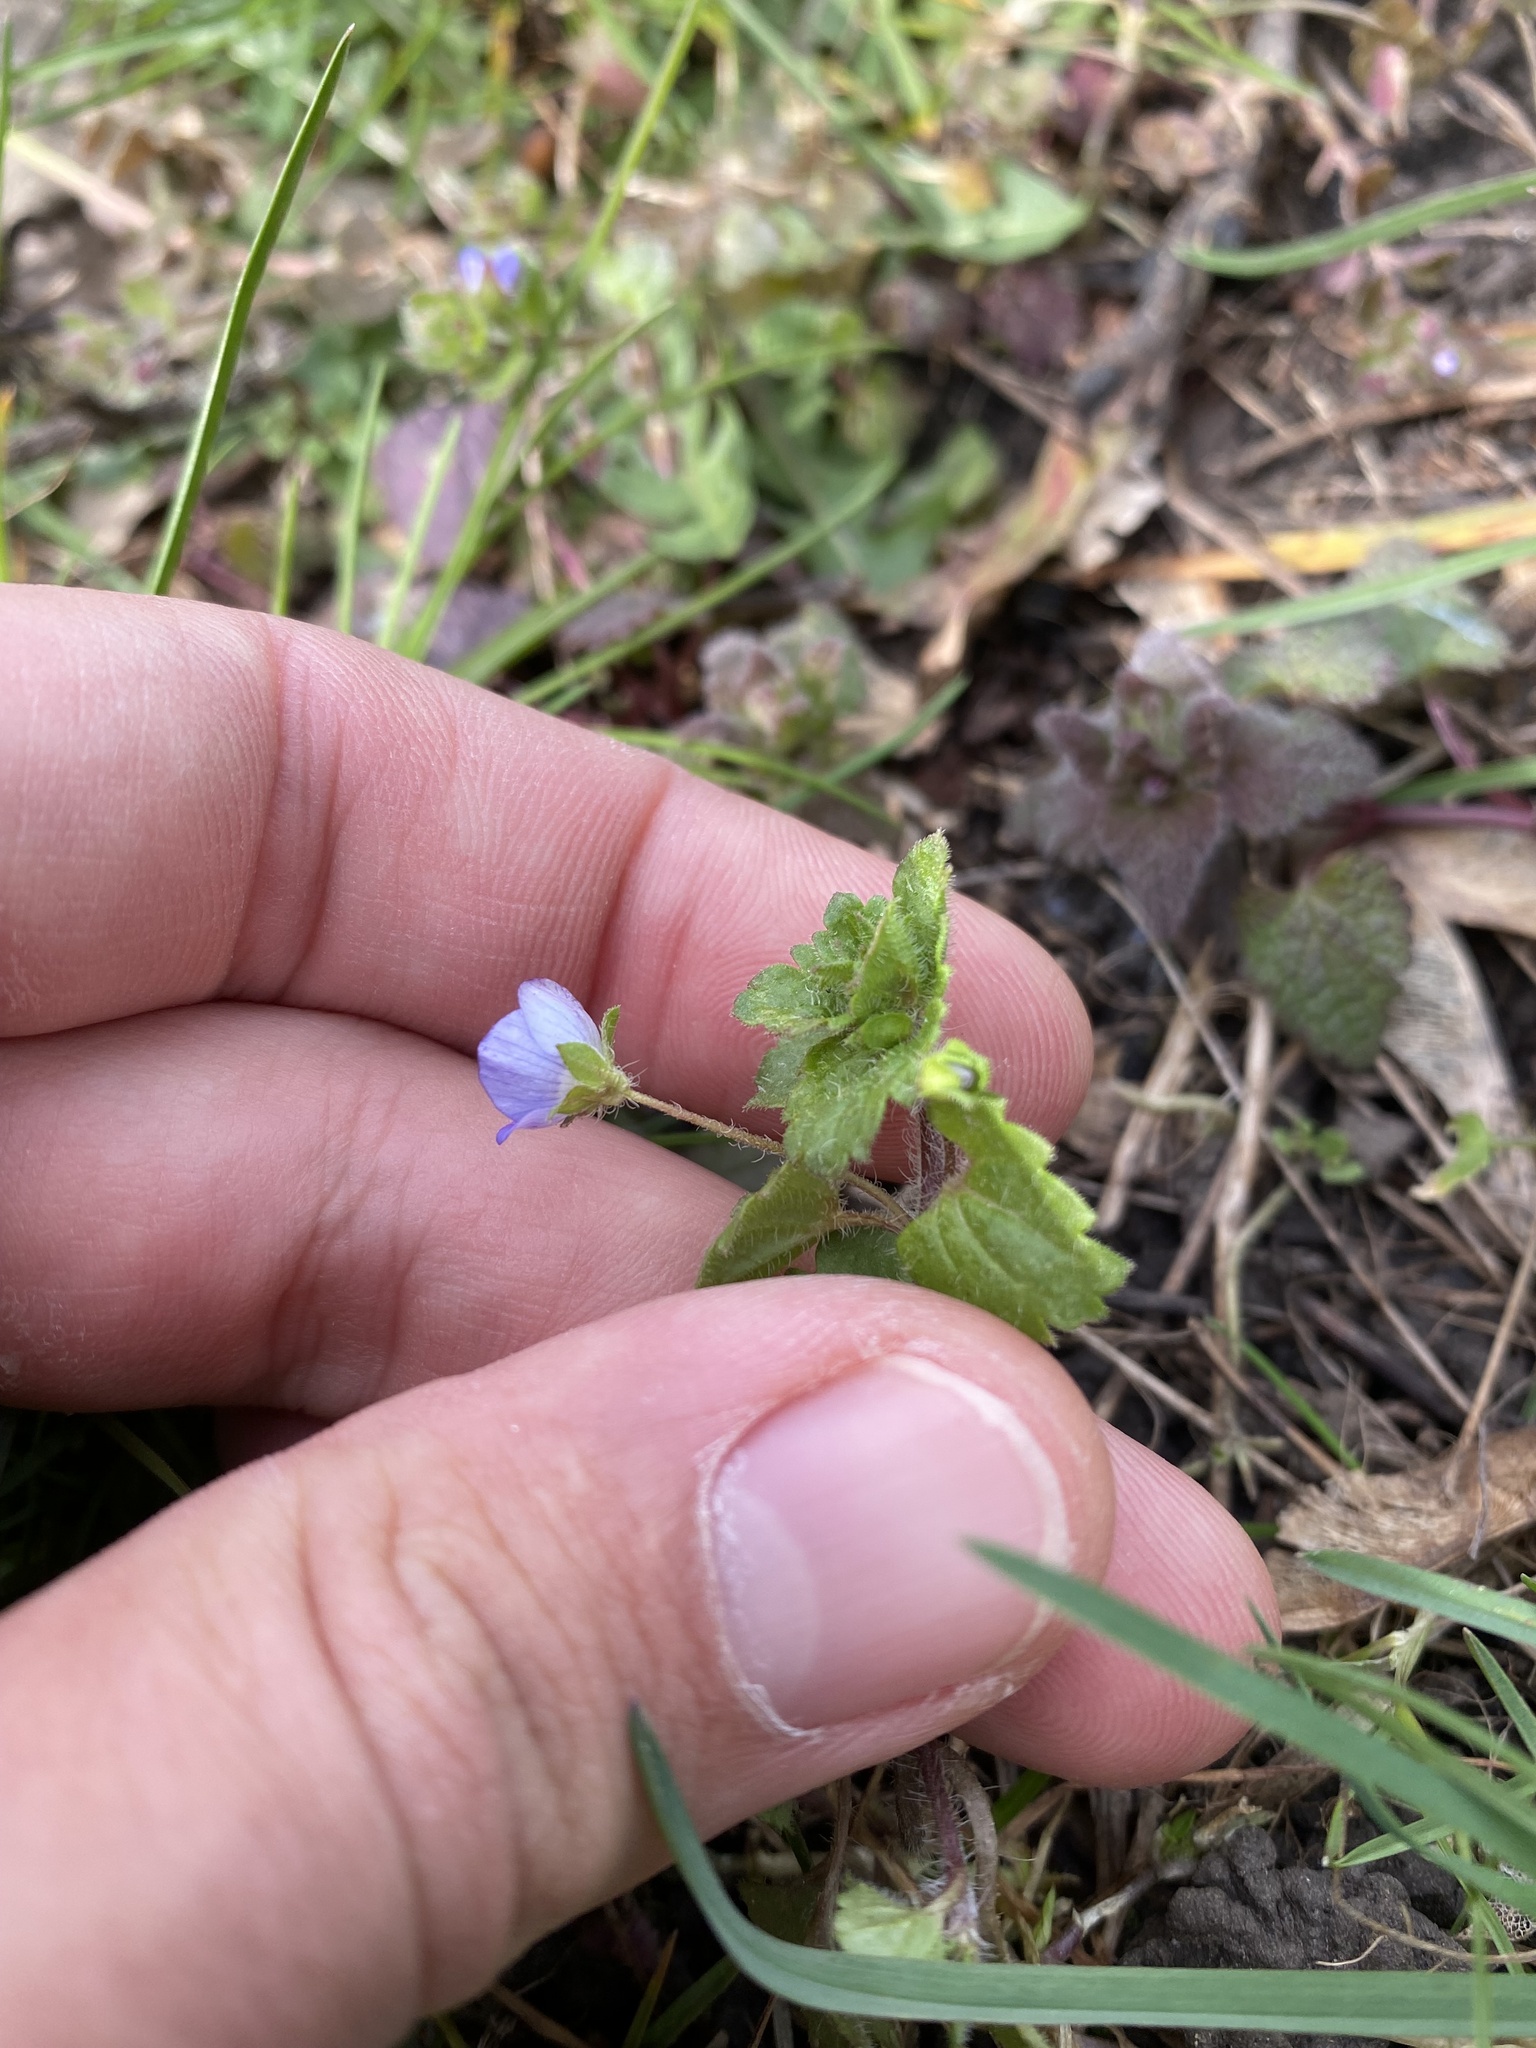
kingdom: Plantae
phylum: Tracheophyta
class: Magnoliopsida
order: Lamiales
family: Plantaginaceae
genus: Veronica
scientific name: Veronica persica
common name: Common field-speedwell
